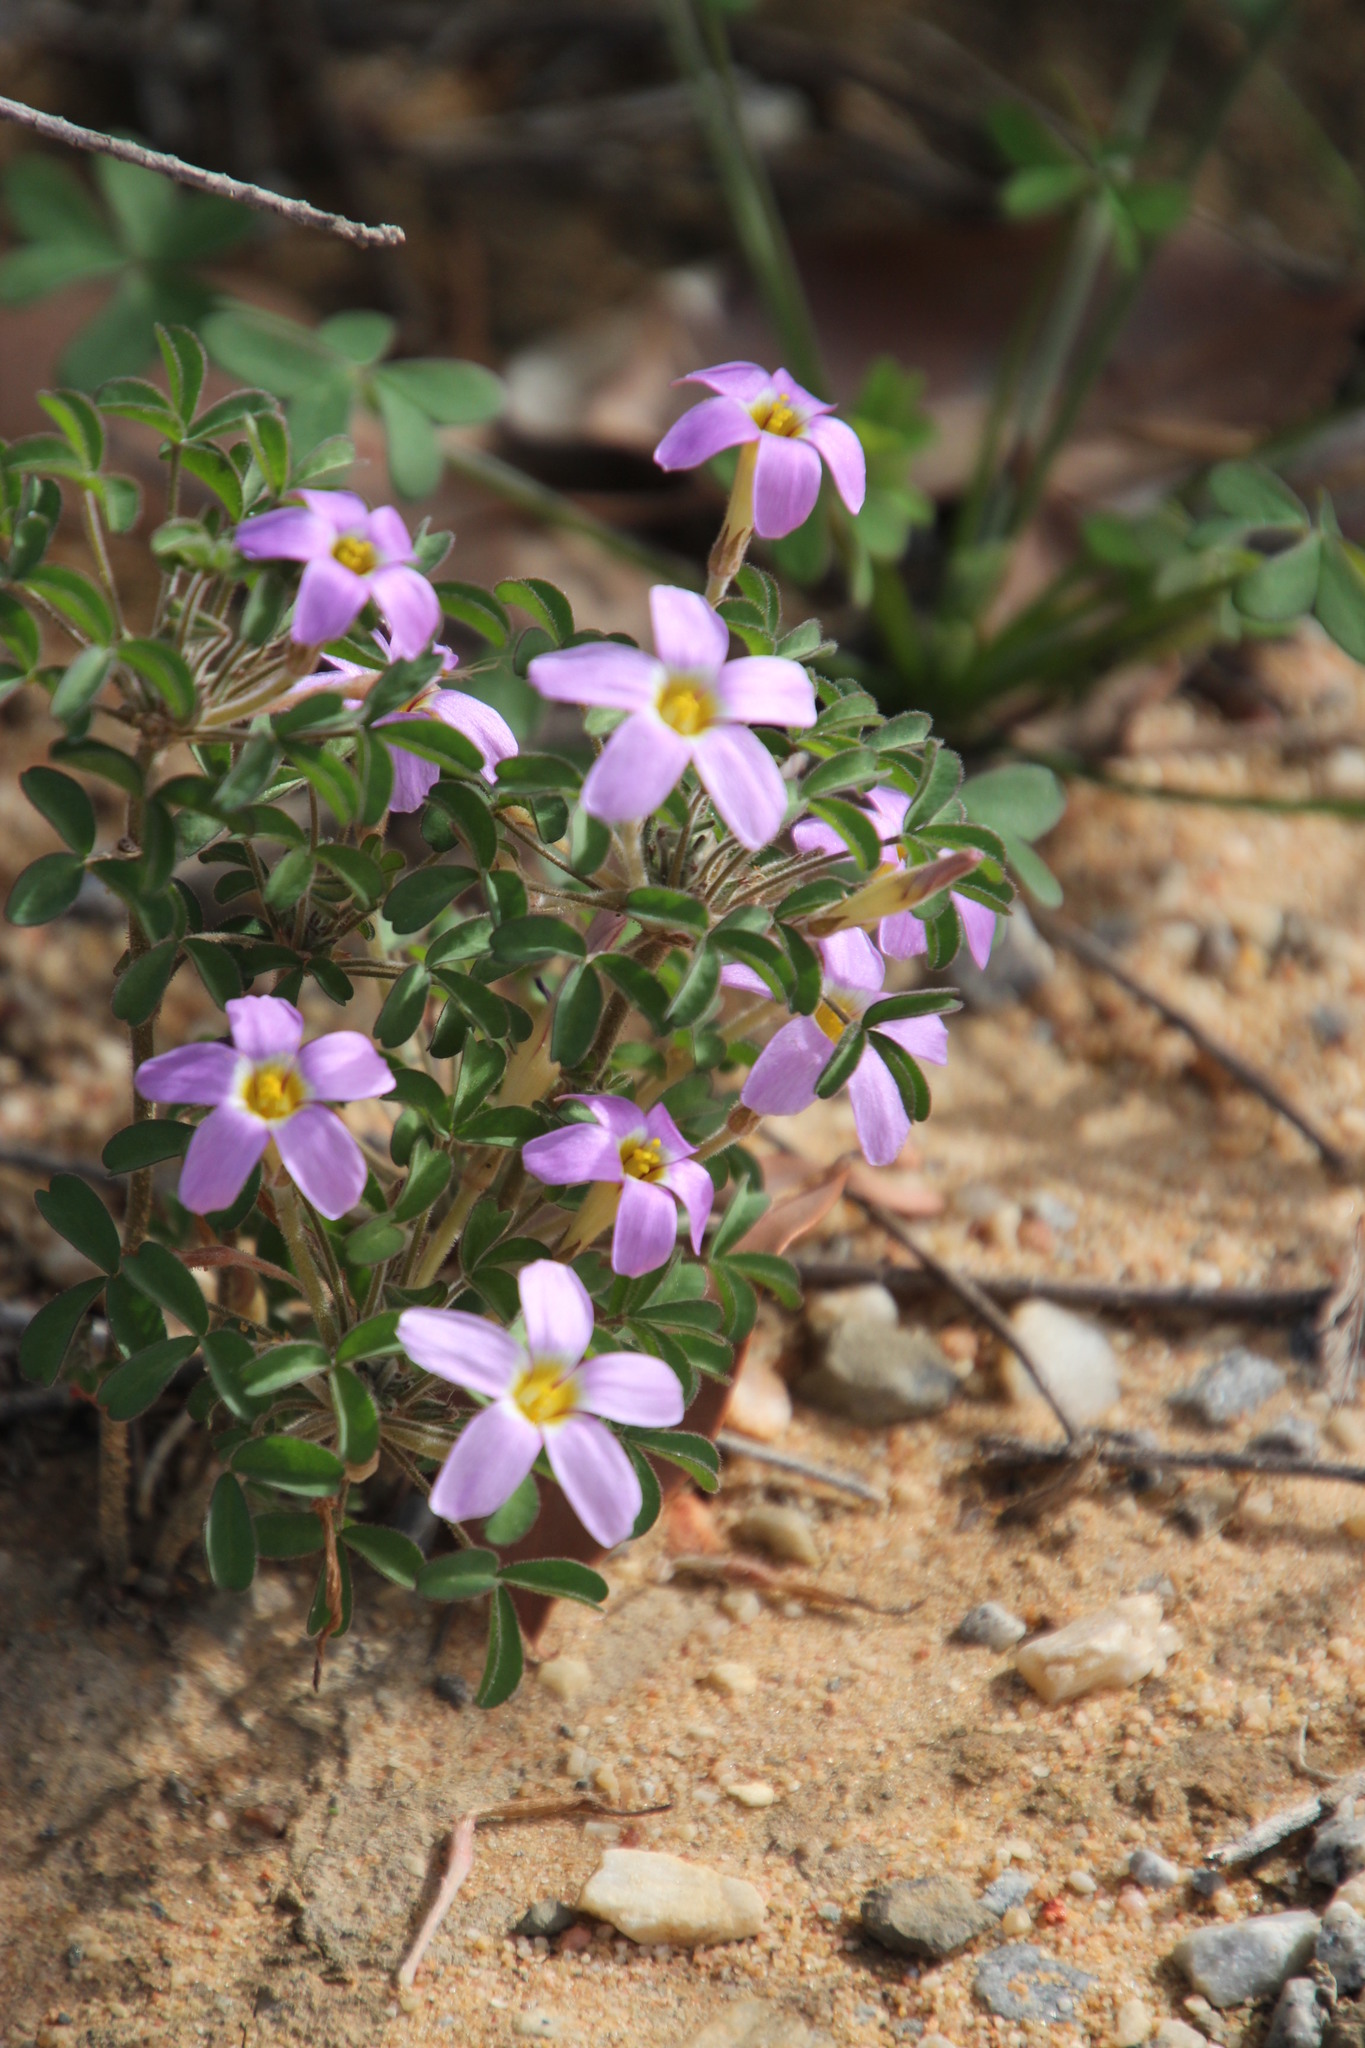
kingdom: Plantae
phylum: Tracheophyta
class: Magnoliopsida
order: Oxalidales
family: Oxalidaceae
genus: Oxalis
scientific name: Oxalis aridicola
